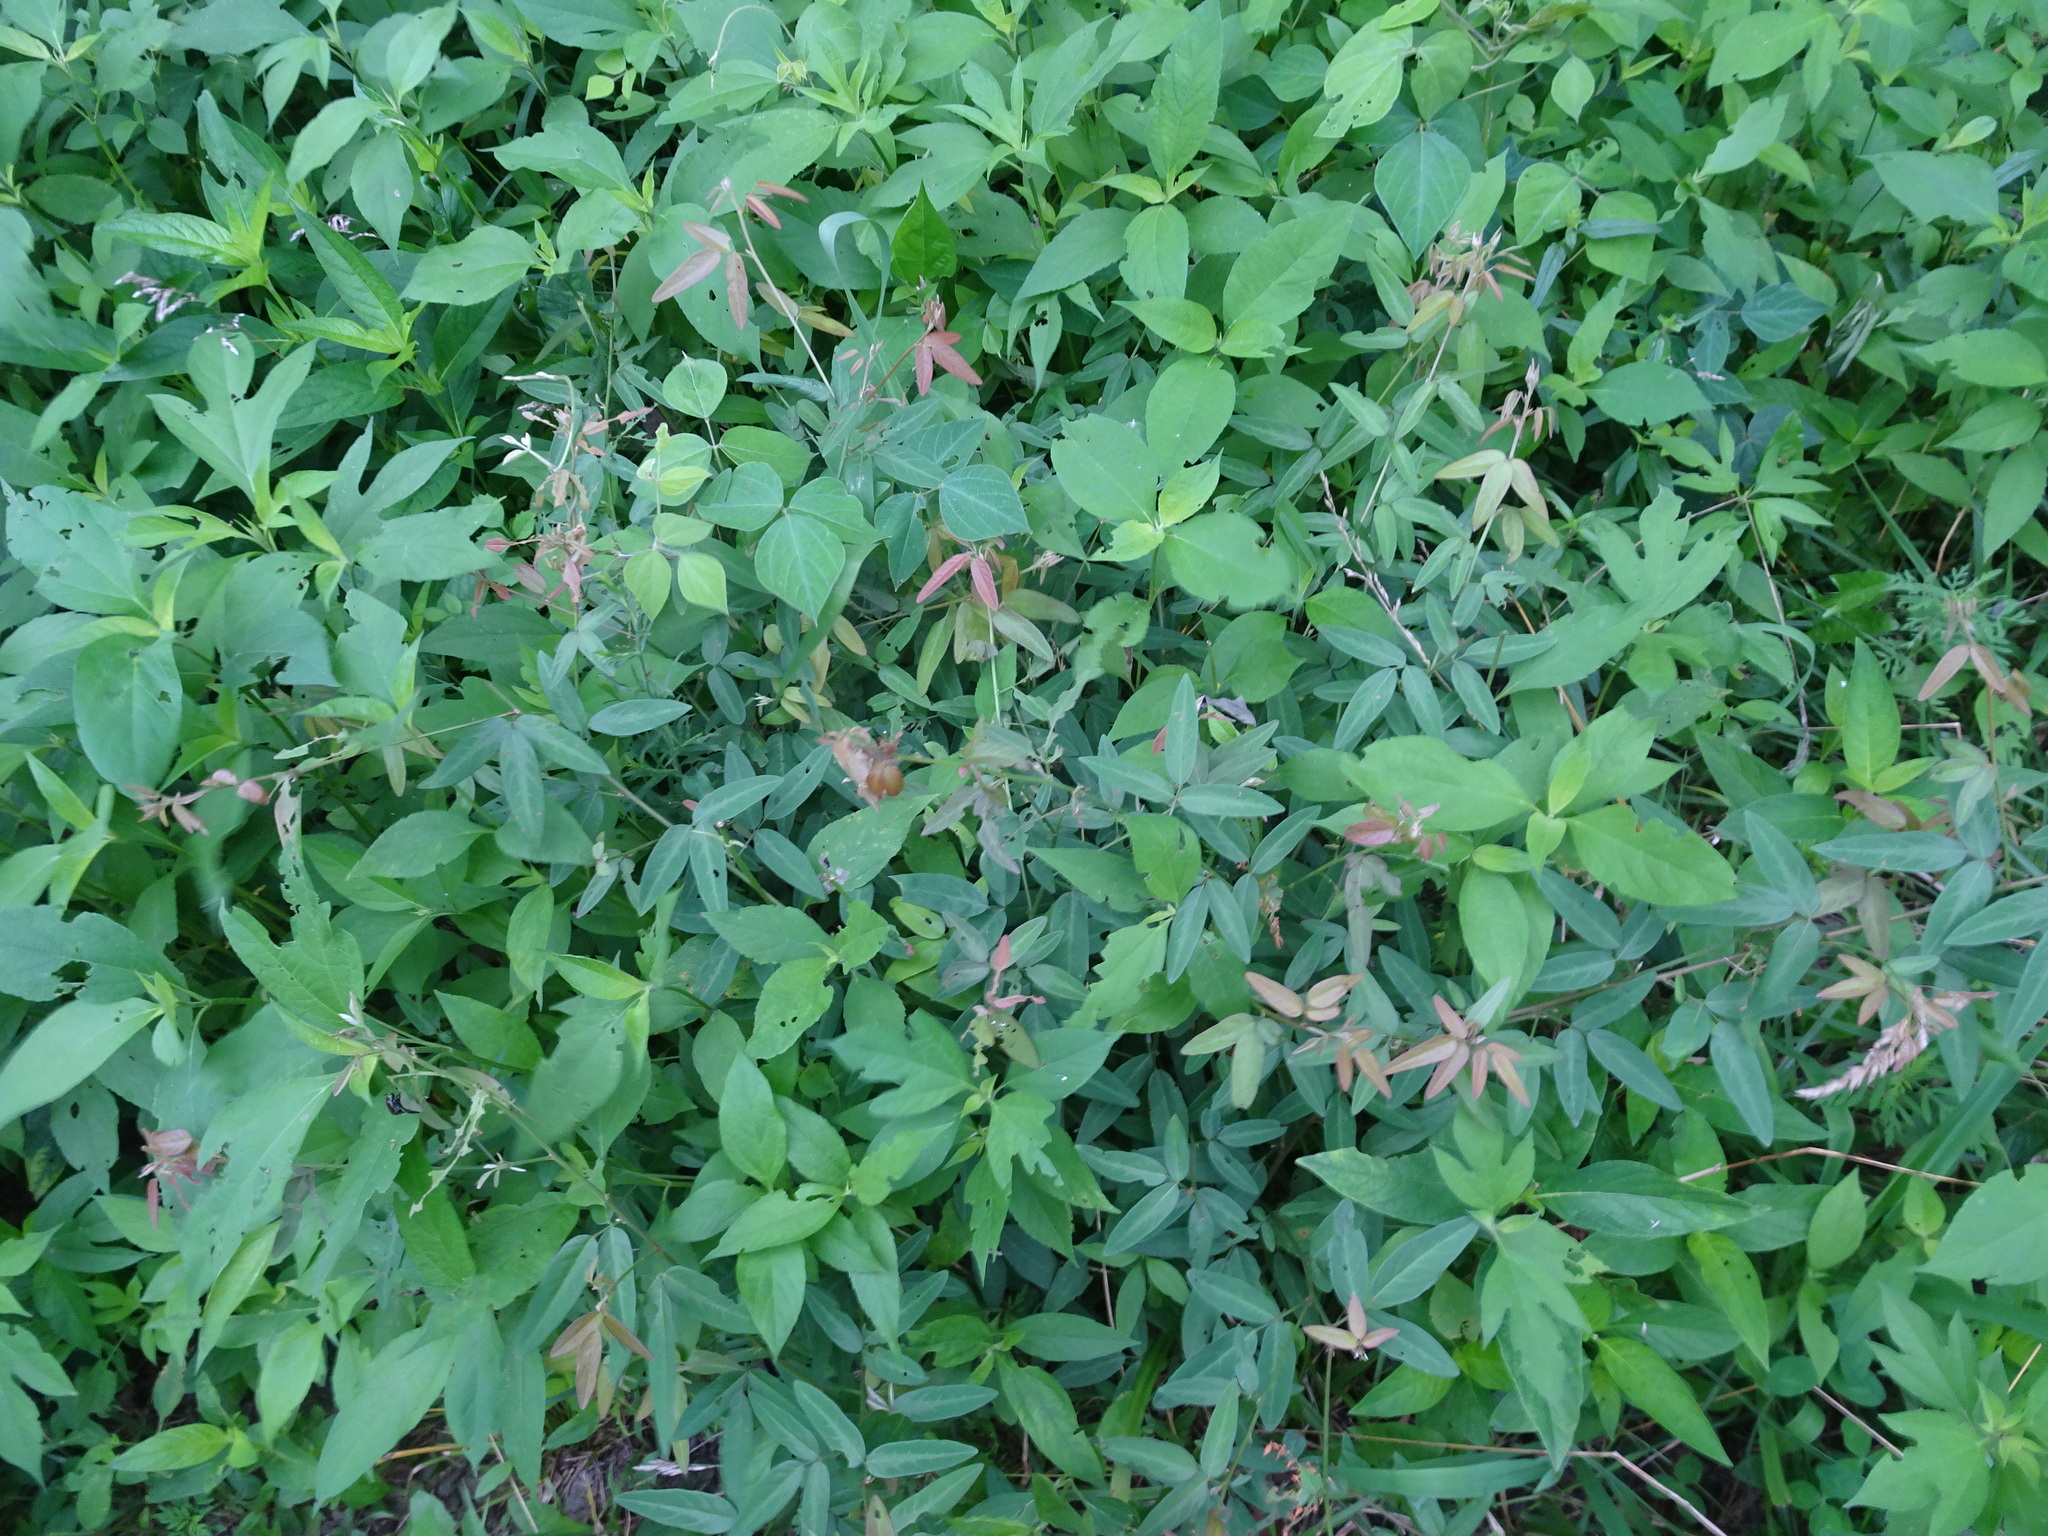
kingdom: Plantae
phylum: Tracheophyta
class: Magnoliopsida
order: Fabales
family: Fabaceae
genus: Desmodium
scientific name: Desmodium paniculatum
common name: Panicled tick-clover
